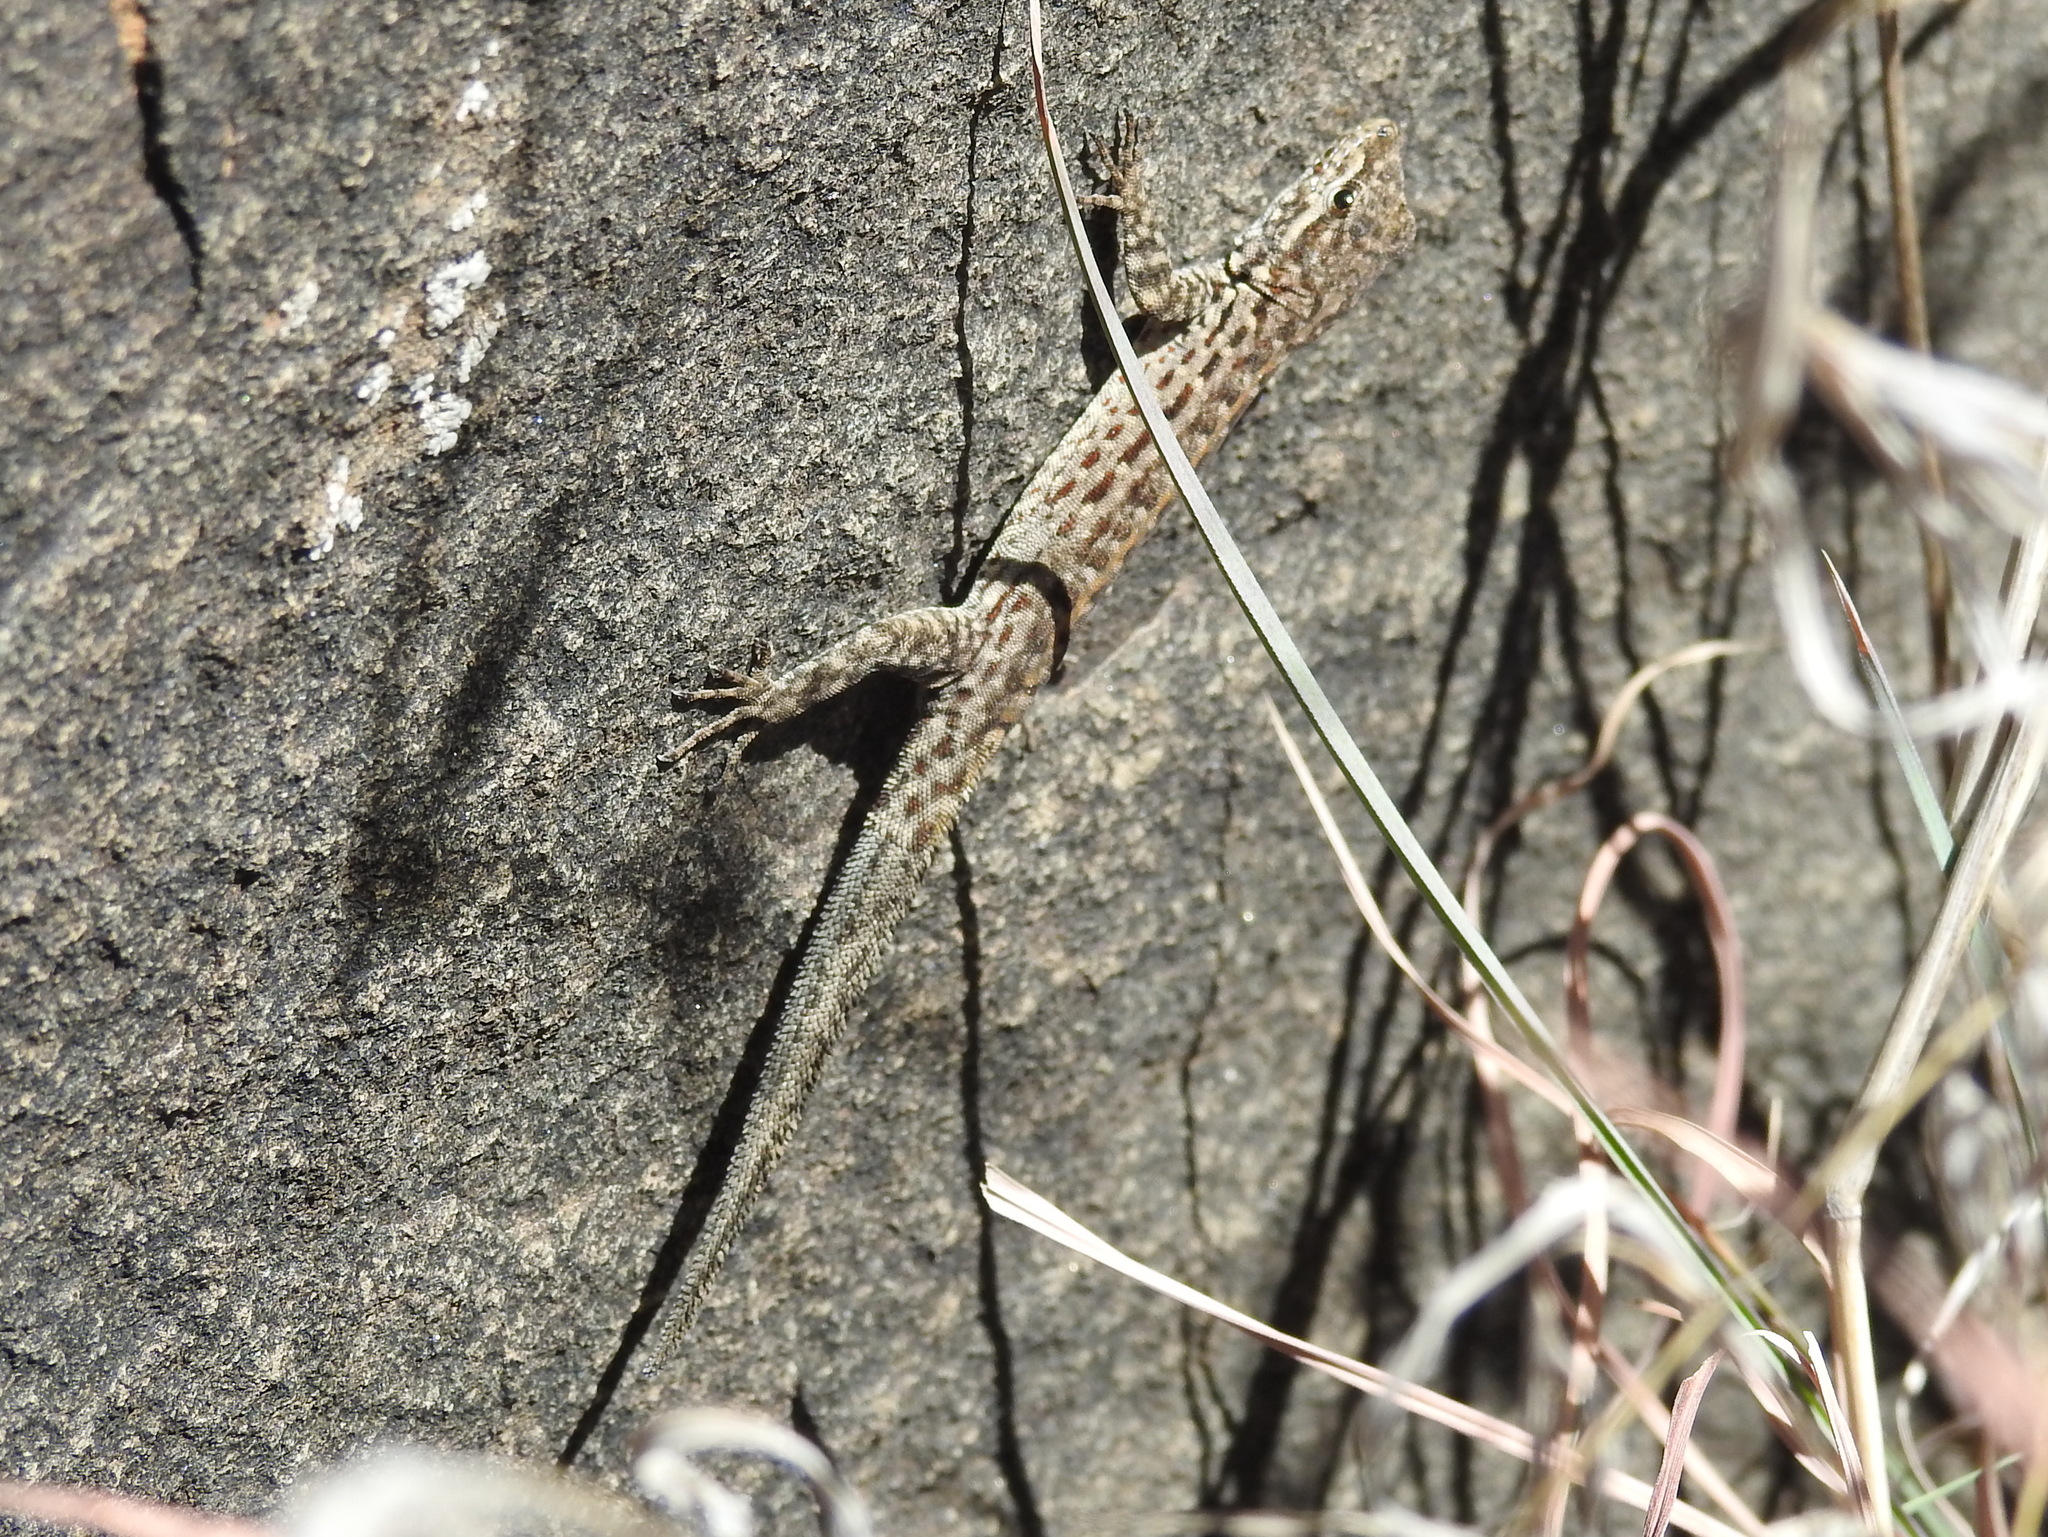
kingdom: Animalia
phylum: Chordata
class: Squamata
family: Sphaerodactylidae
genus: Pristurus
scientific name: Pristurus popovi
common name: Saudi rock gecko
